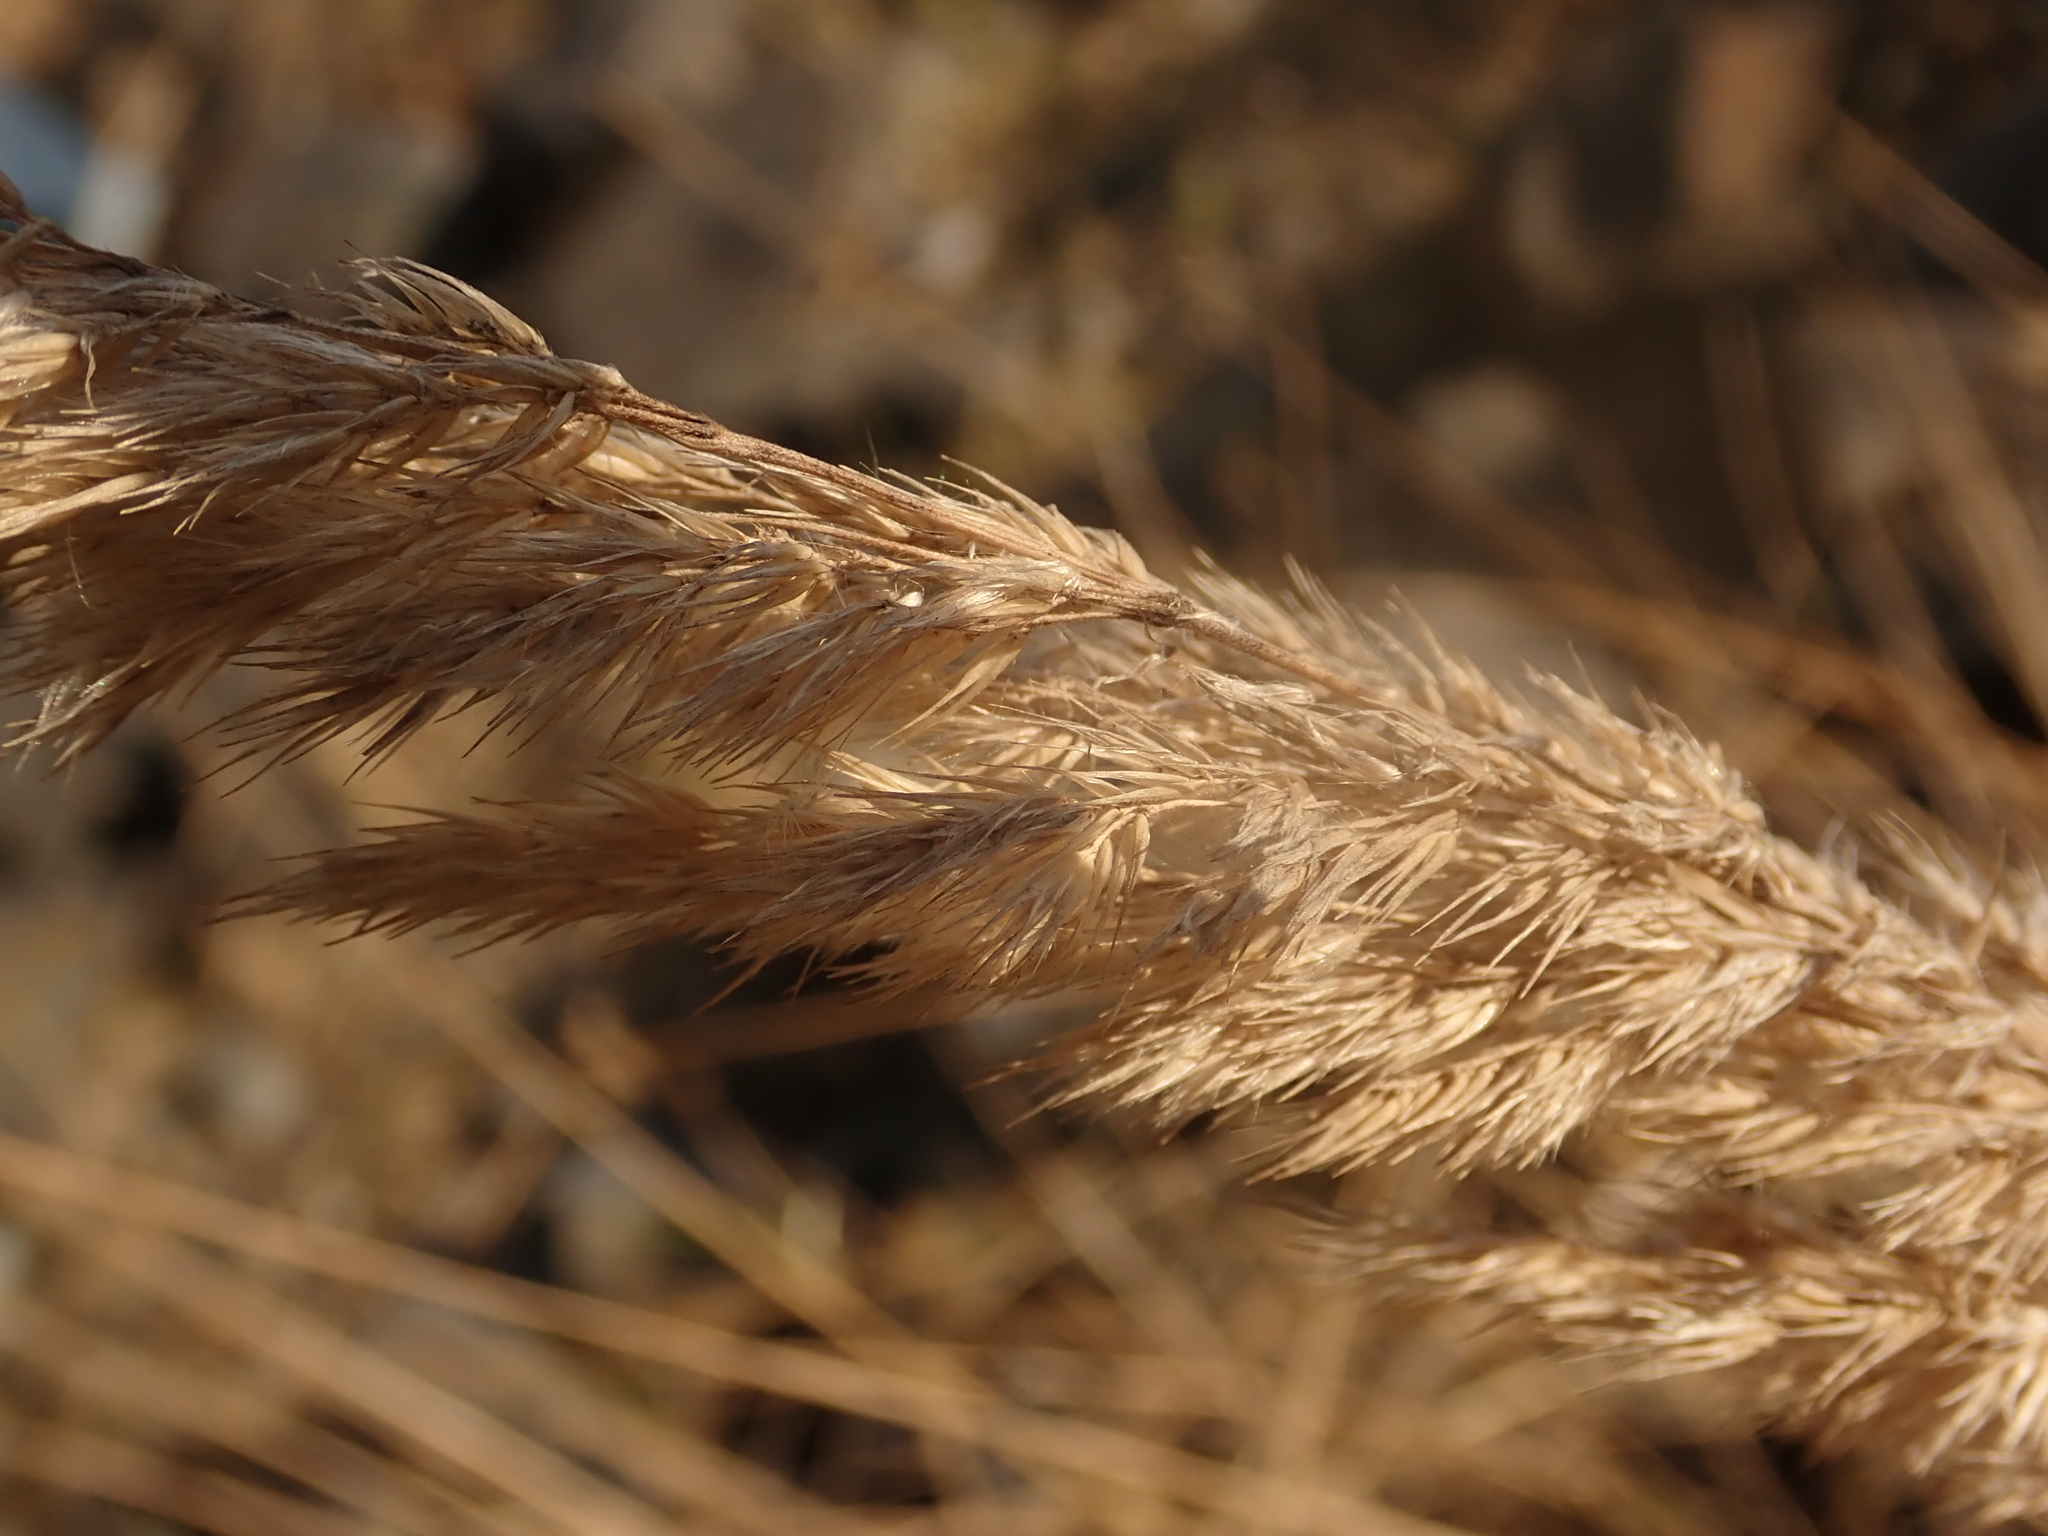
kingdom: Plantae
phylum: Tracheophyta
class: Liliopsida
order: Poales
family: Poaceae
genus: Calamagrostis
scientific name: Calamagrostis epigejos
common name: Wood small-reed
